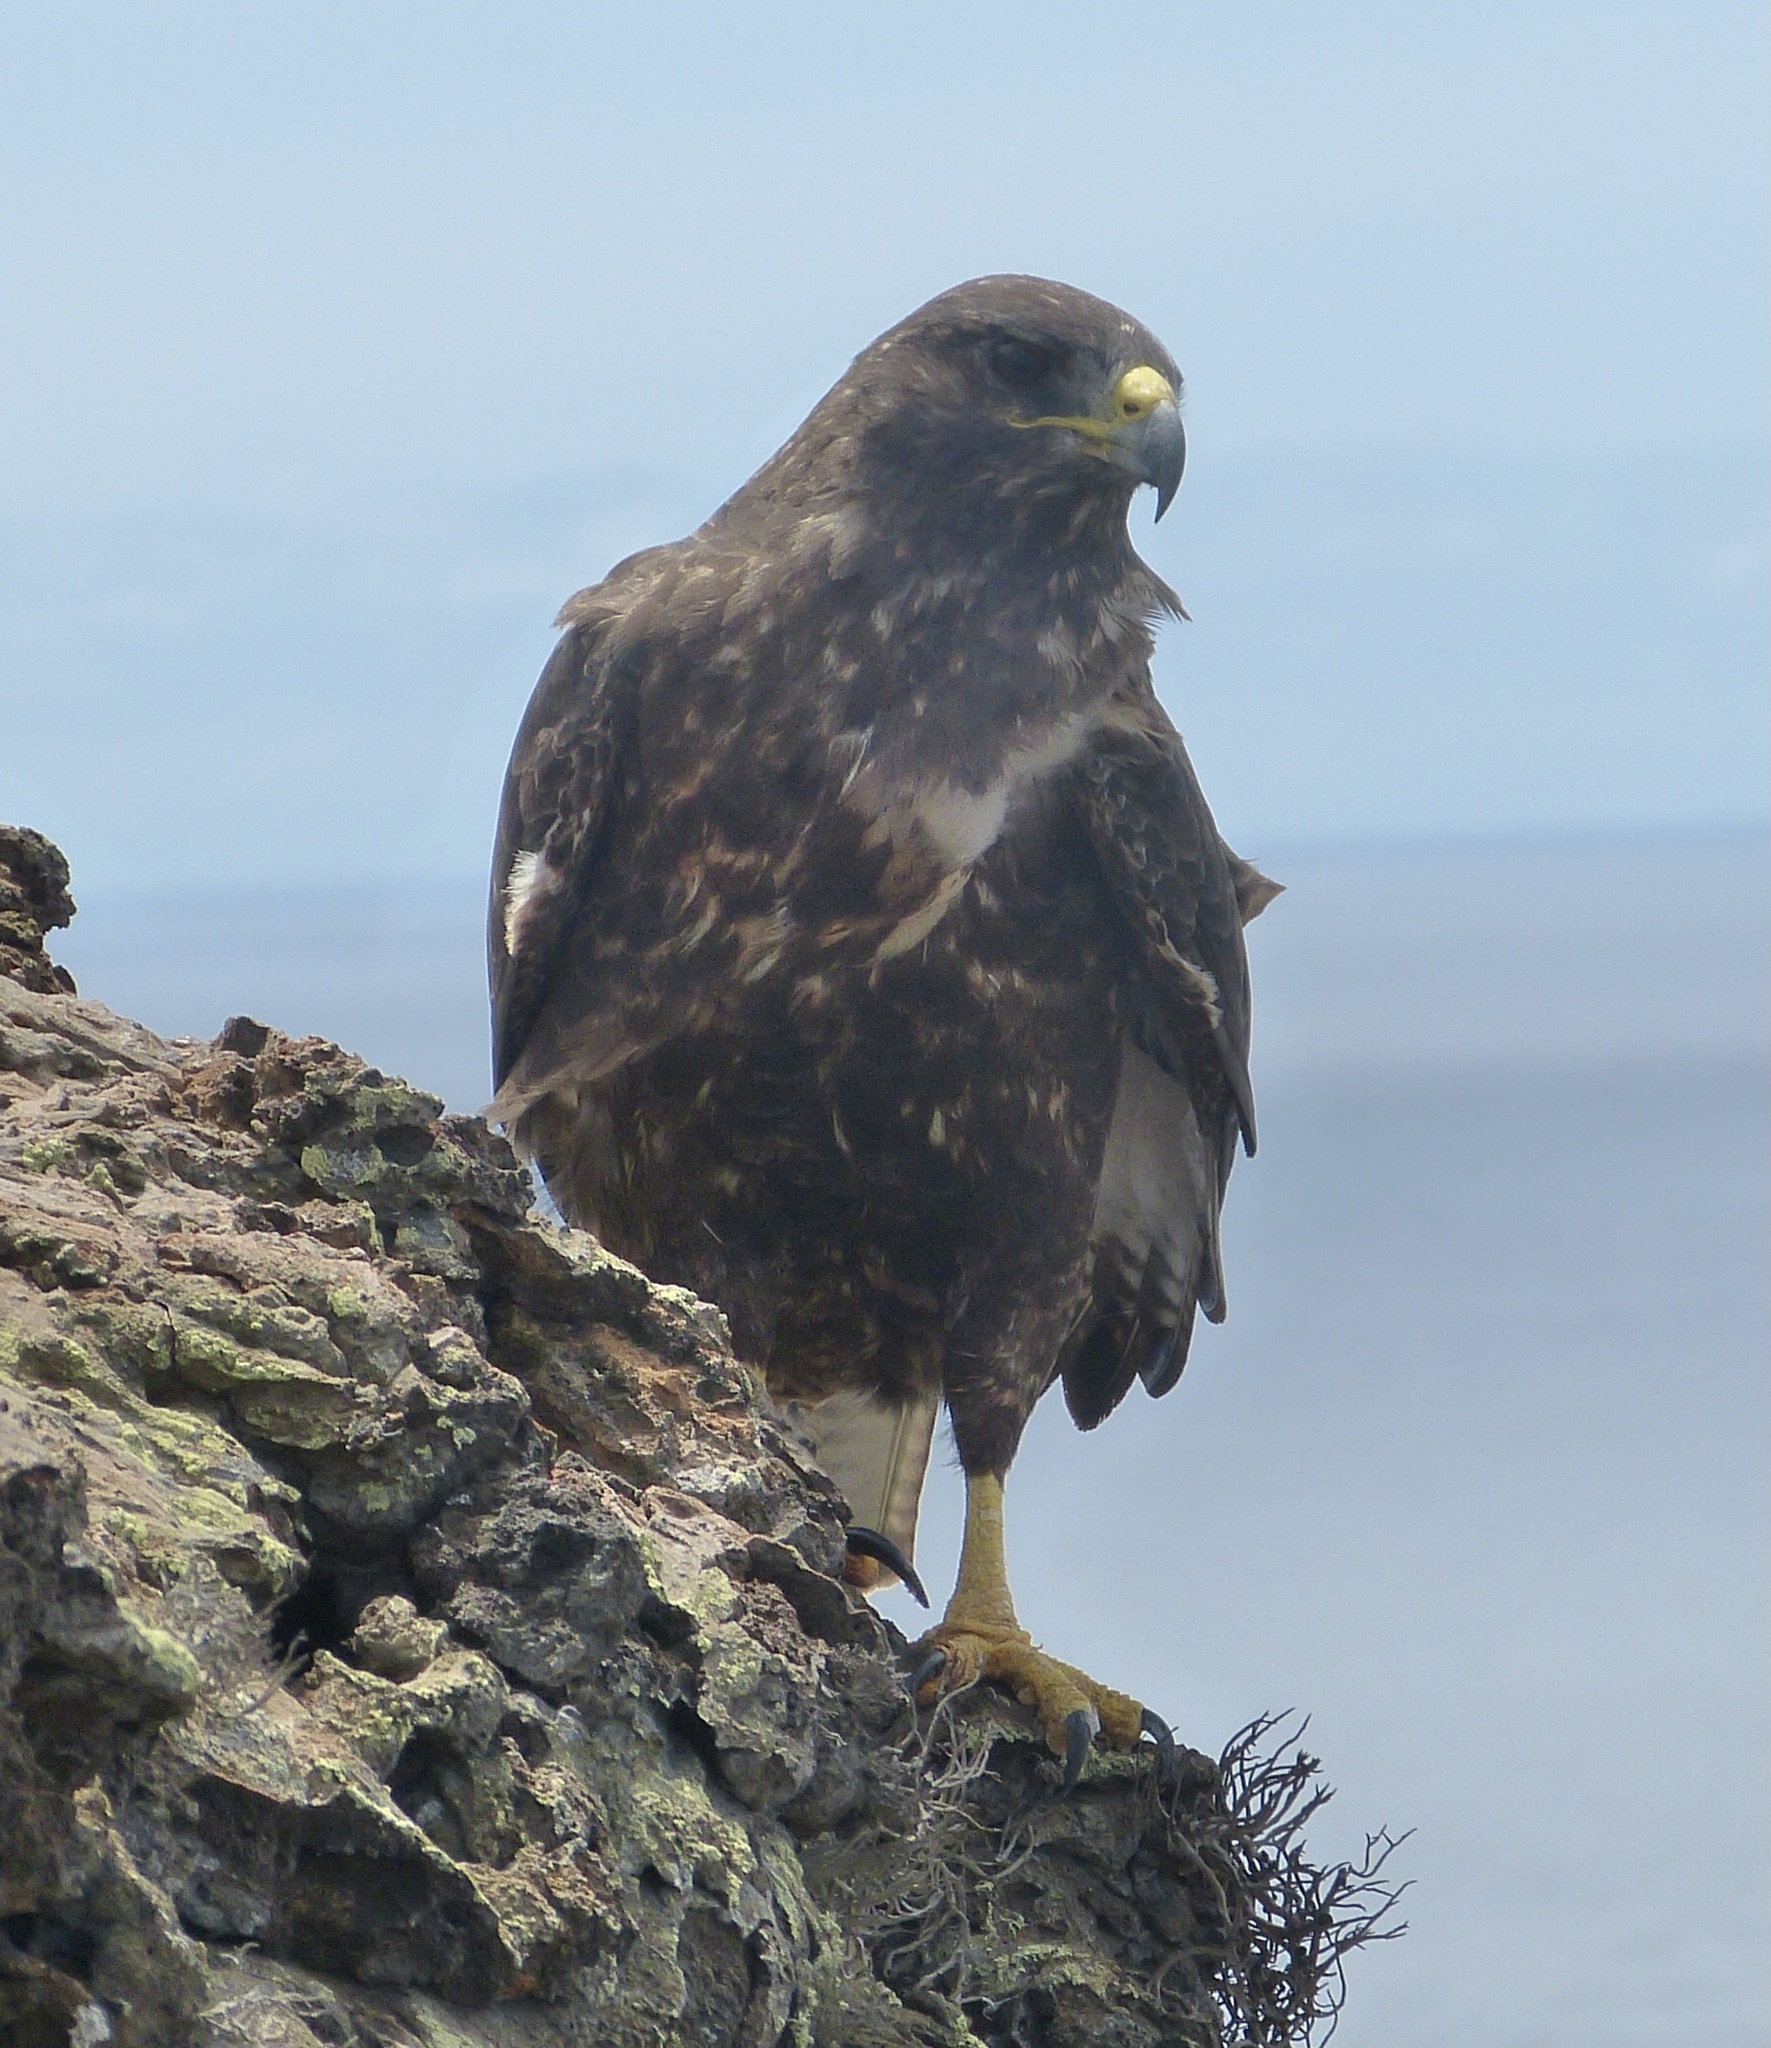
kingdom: Animalia
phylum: Chordata
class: Aves
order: Accipitriformes
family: Accipitridae
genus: Buteo
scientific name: Buteo galapagoensis
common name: Galapagos hawk
